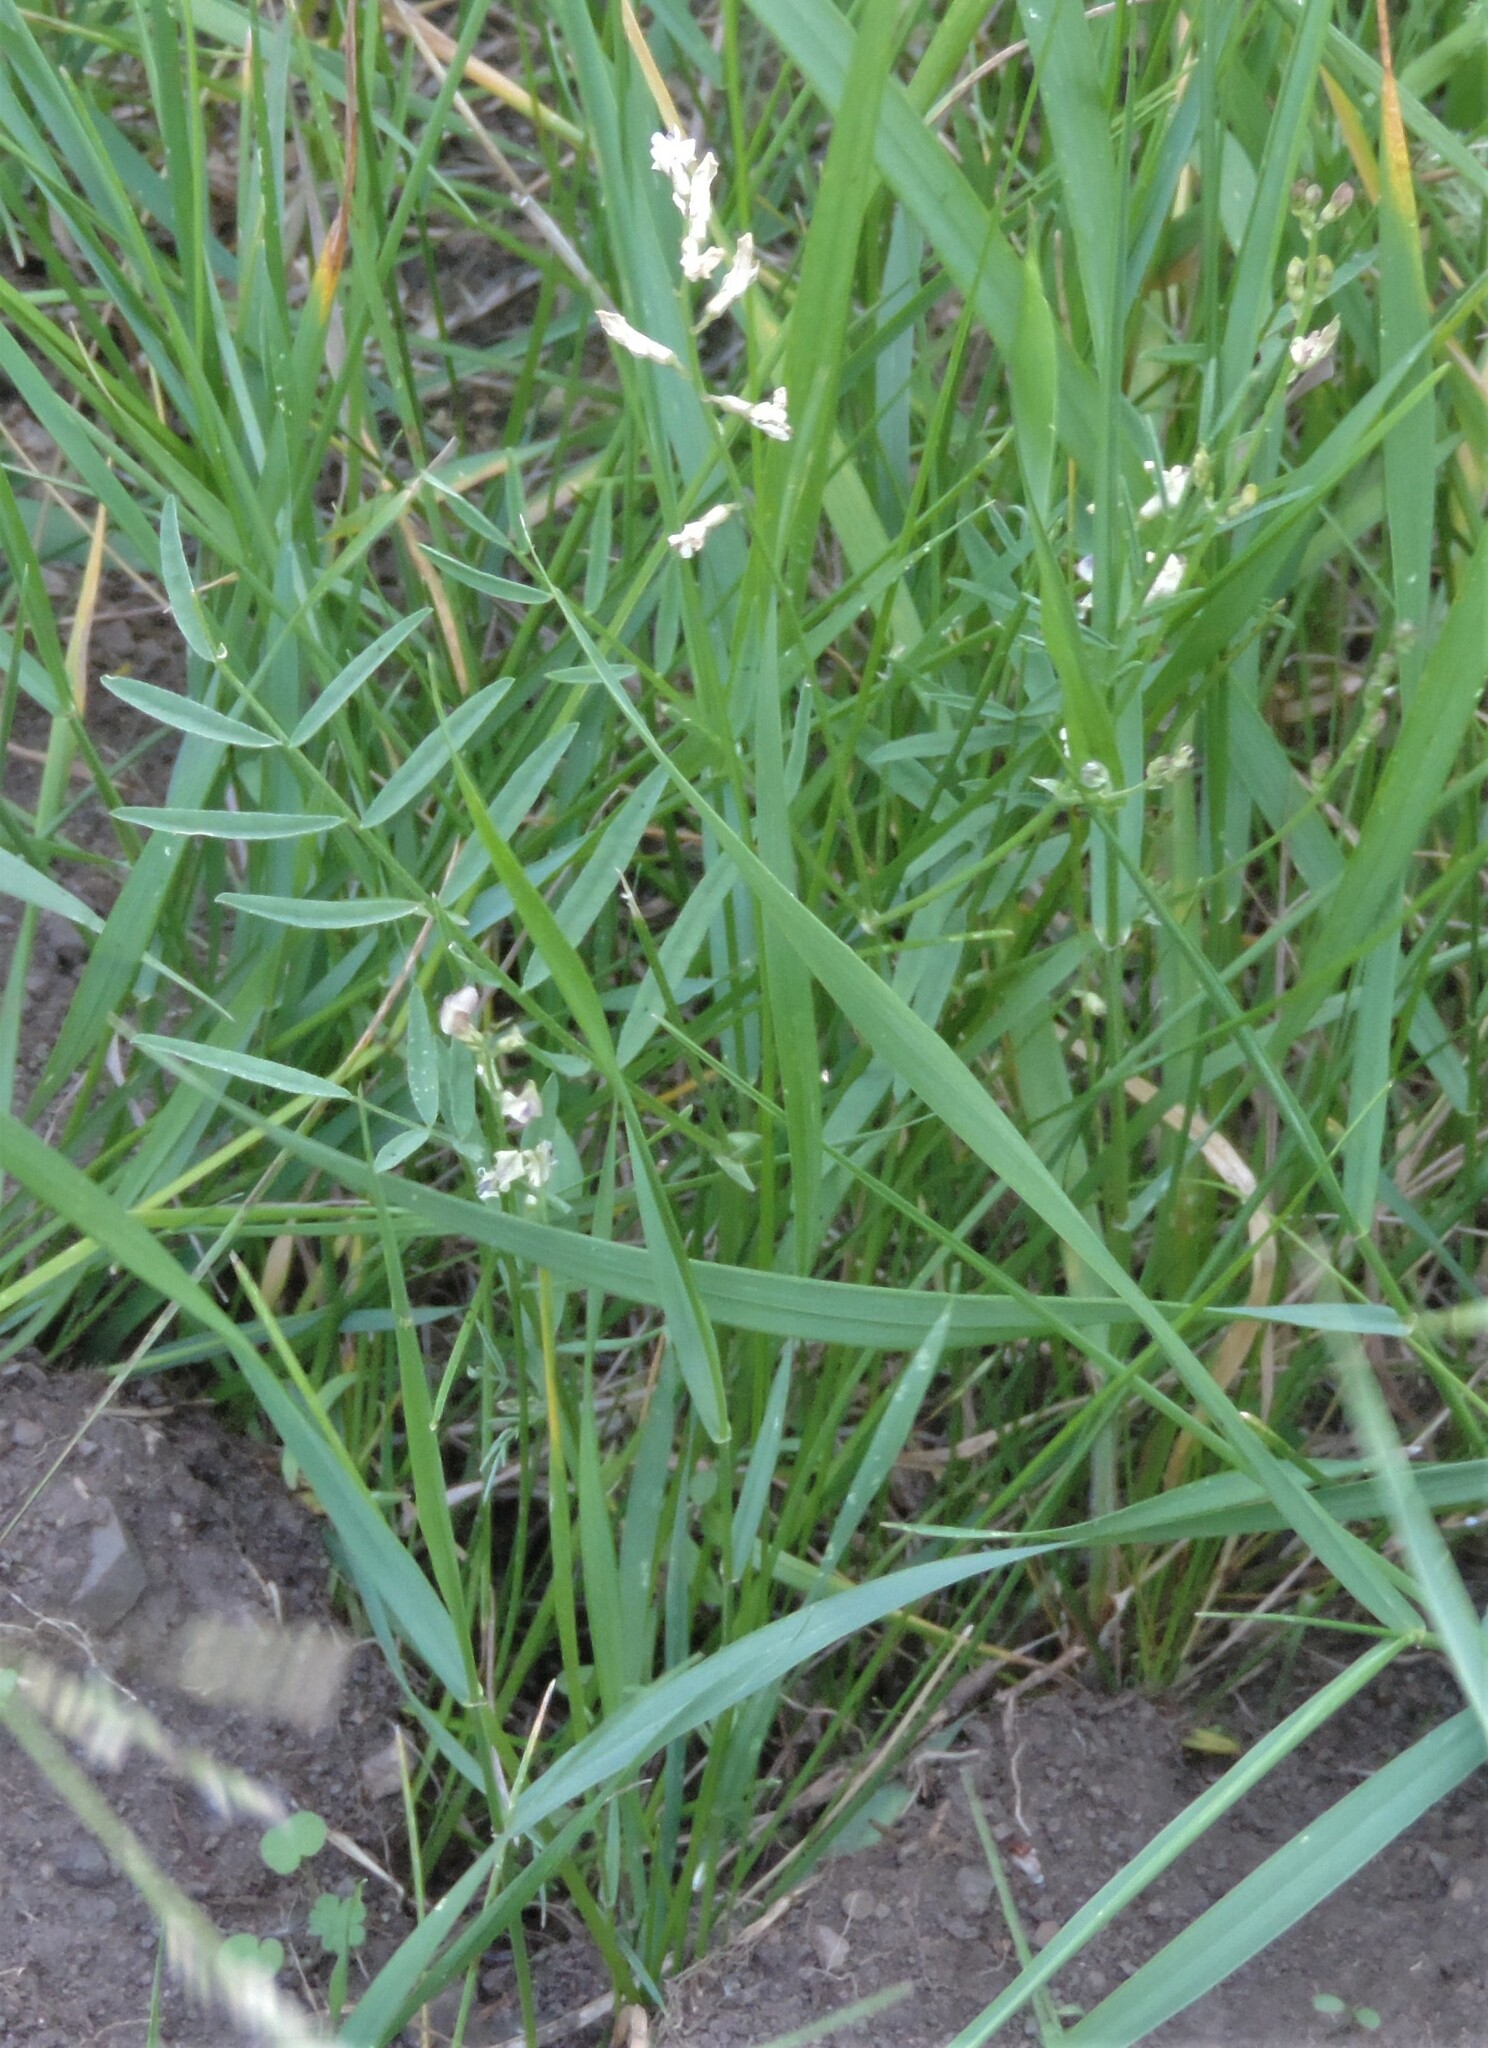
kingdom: Plantae
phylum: Tracheophyta
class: Magnoliopsida
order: Fabales
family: Fabaceae
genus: Astragalus
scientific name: Astragalus miser
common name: Timber milkvetch
